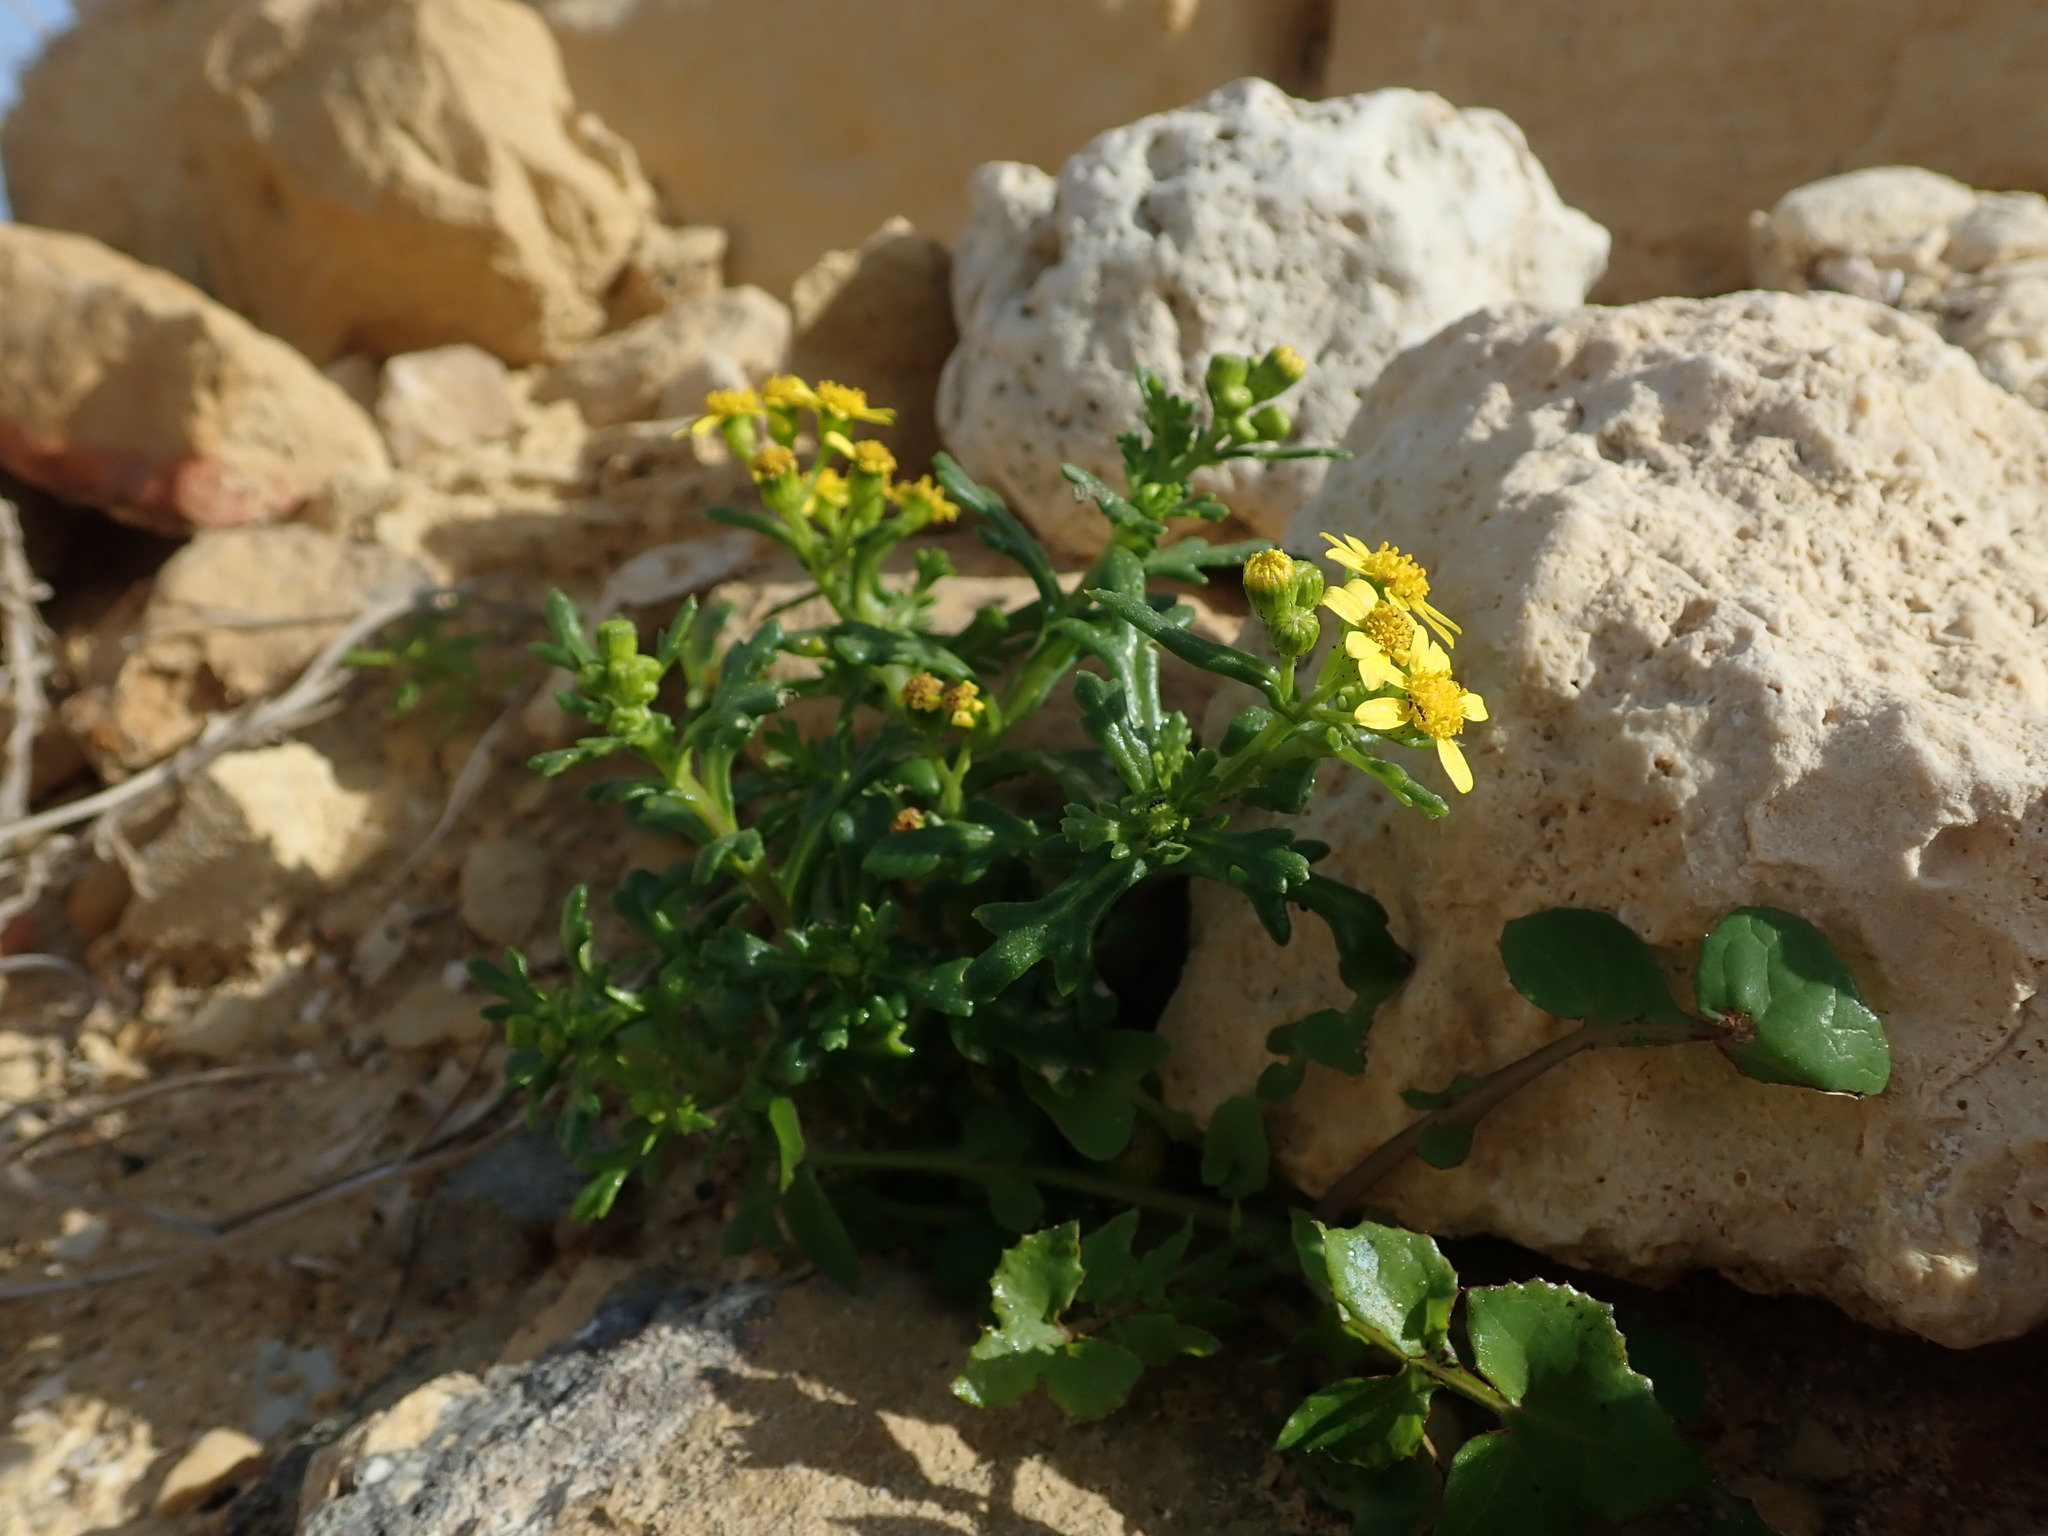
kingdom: Plantae
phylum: Tracheophyta
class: Magnoliopsida
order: Asterales
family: Asteraceae
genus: Senecio
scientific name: Senecio leucanthemifolius
